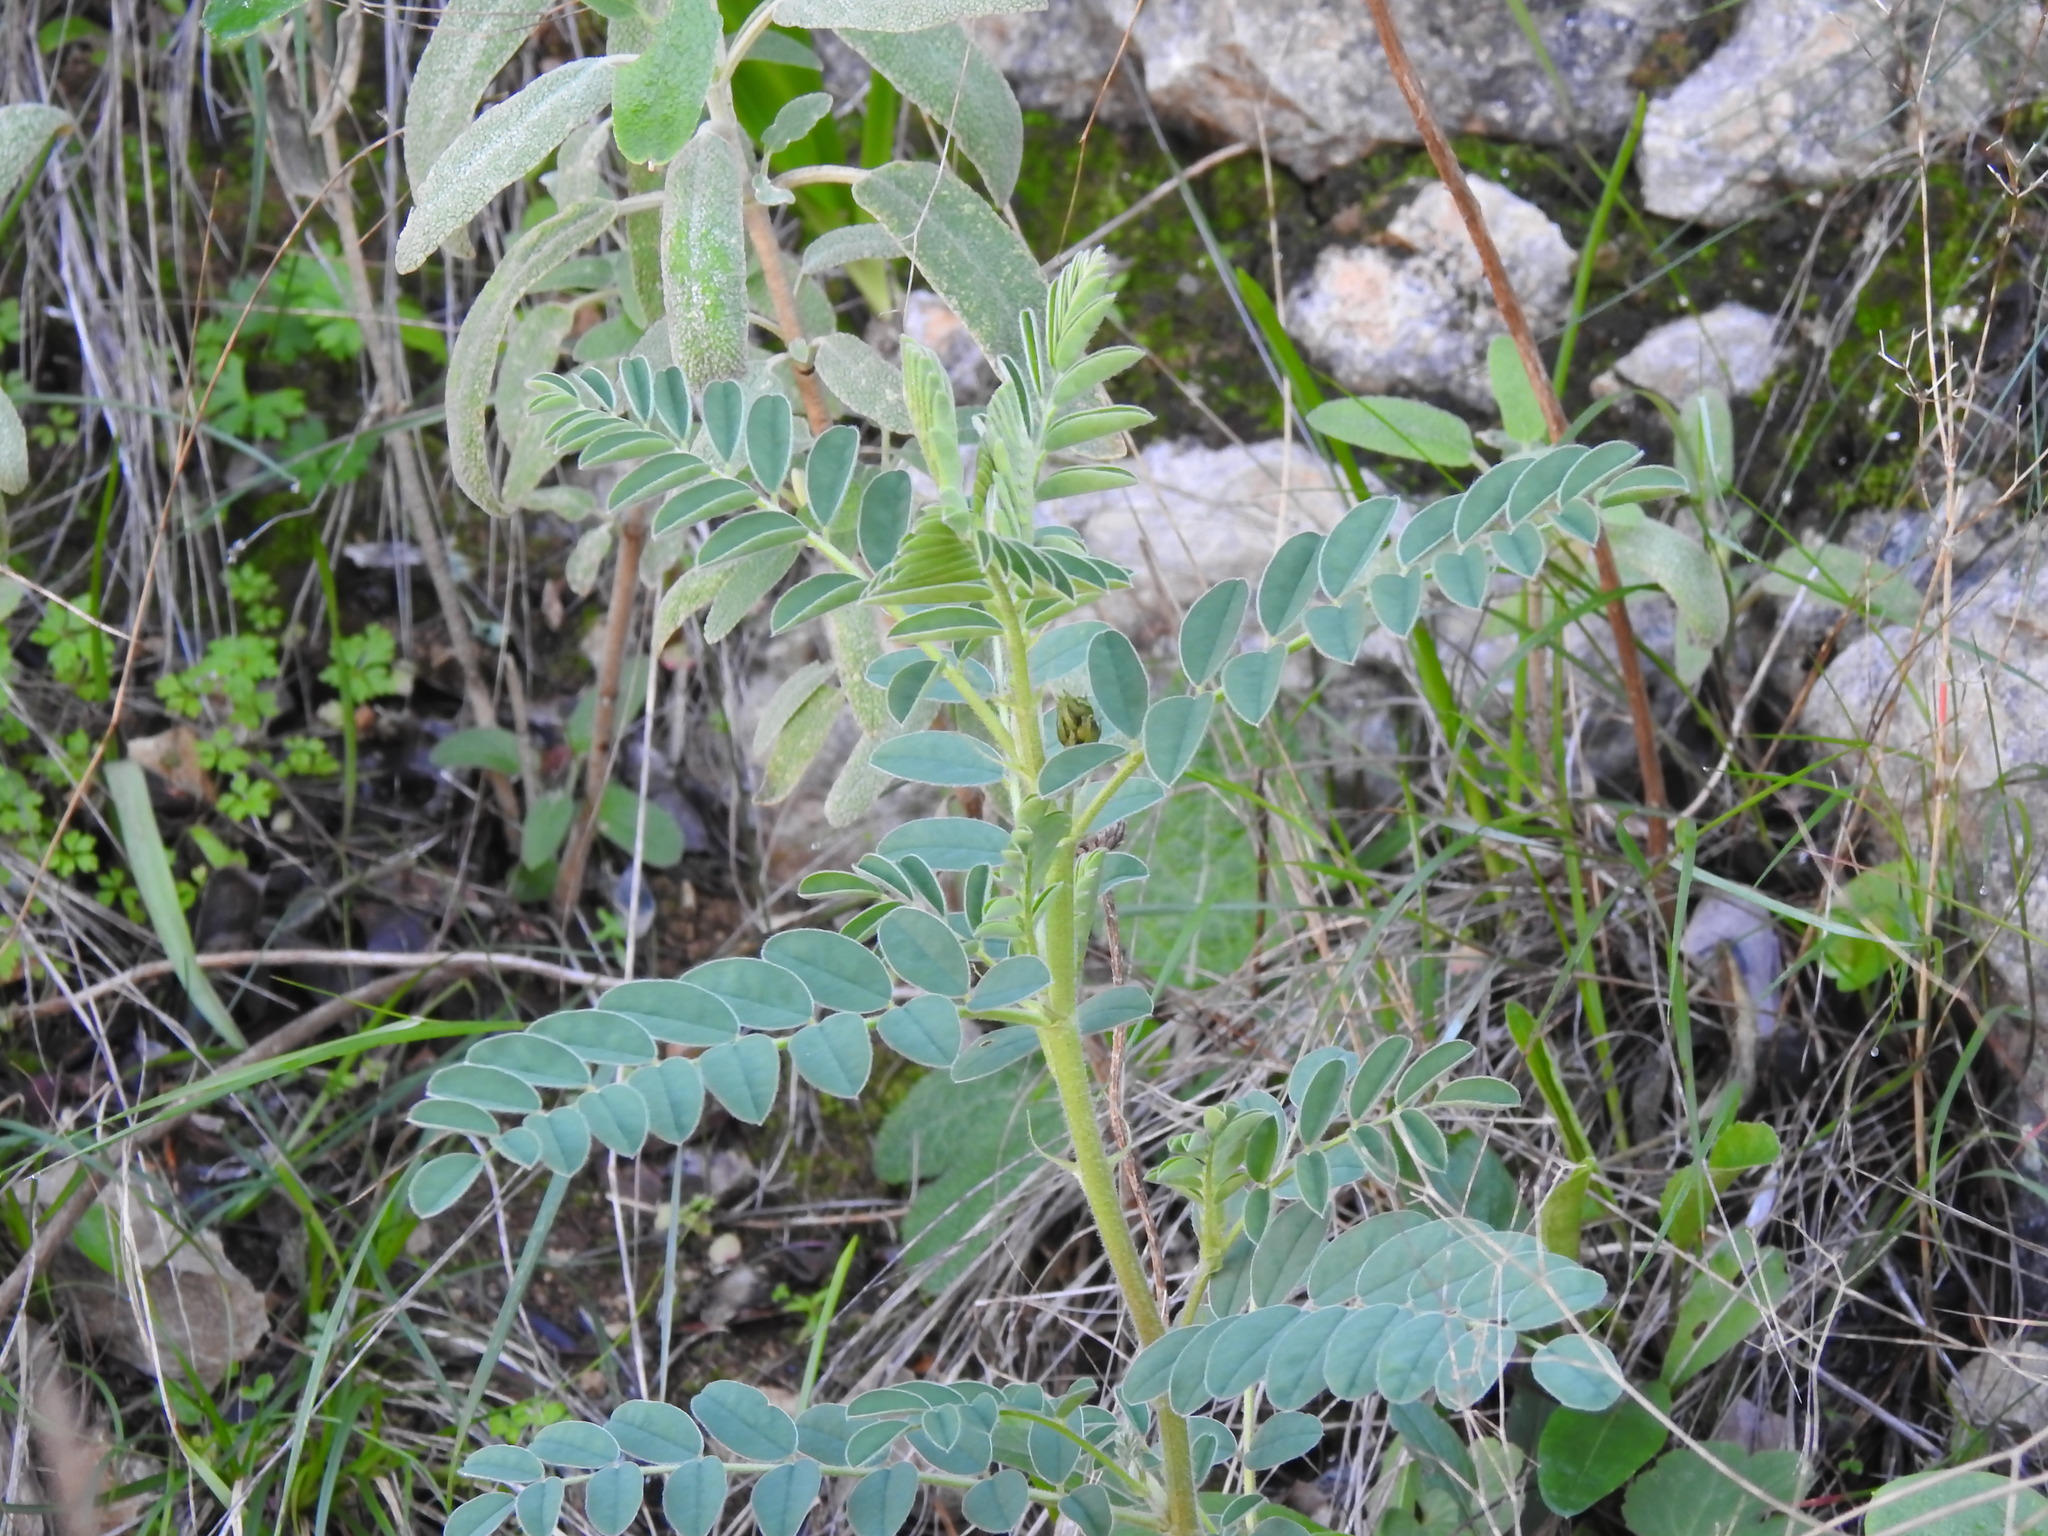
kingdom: Plantae
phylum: Tracheophyta
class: Magnoliopsida
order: Fabales
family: Fabaceae
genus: Erophaca
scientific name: Erophaca baetica
